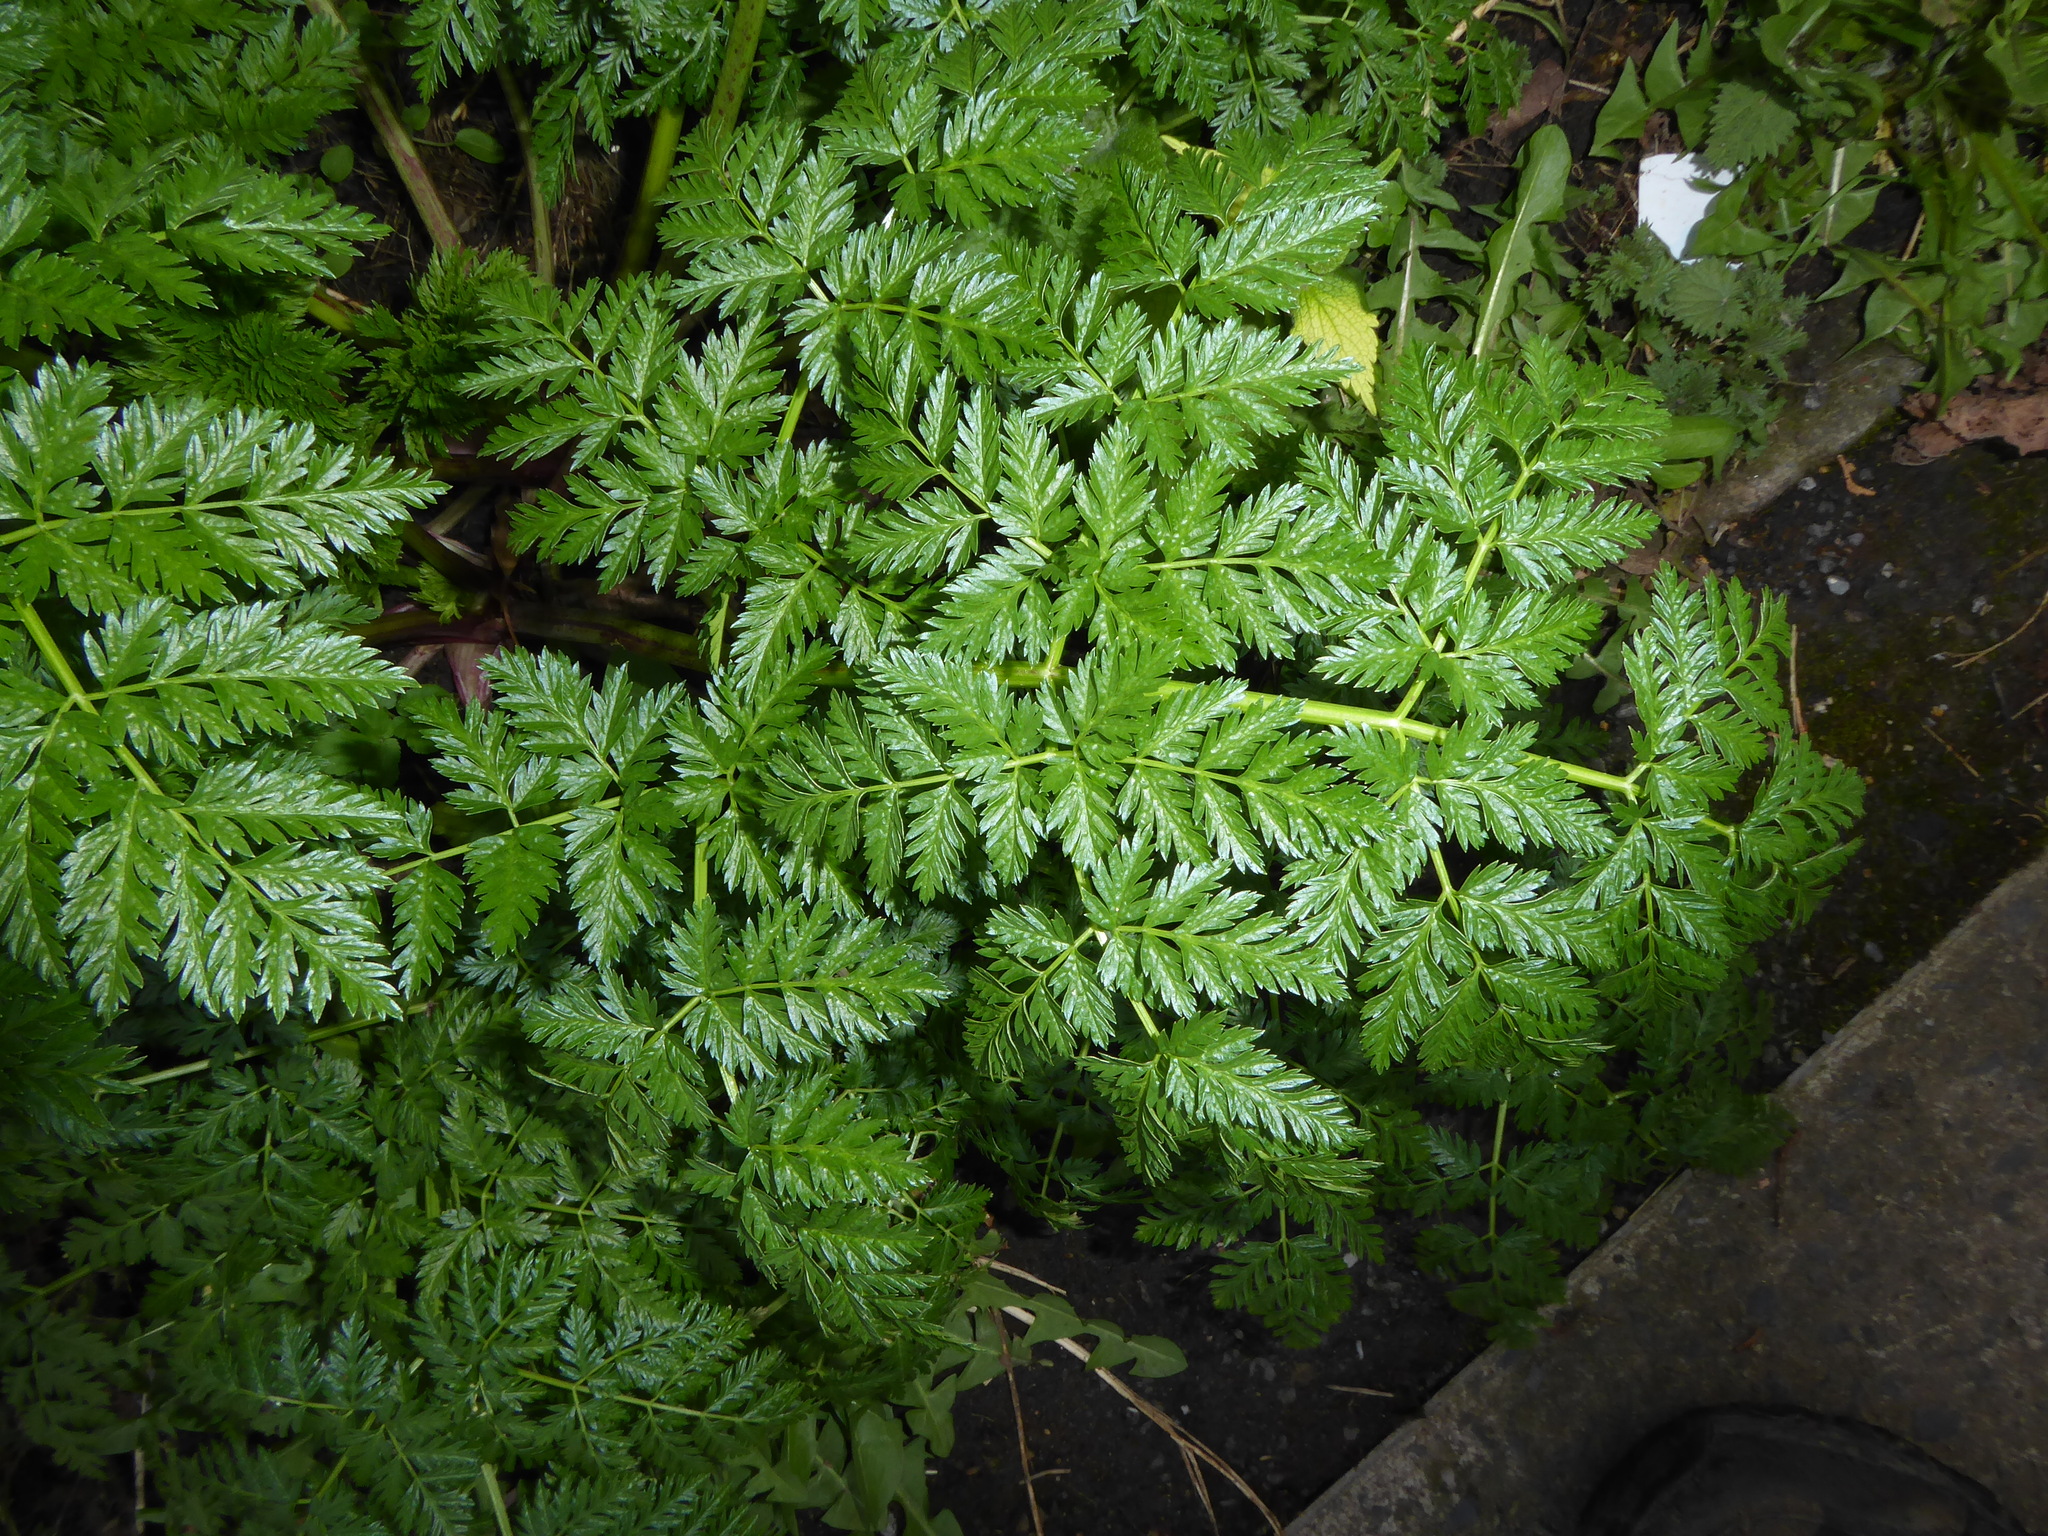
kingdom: Plantae
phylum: Tracheophyta
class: Magnoliopsida
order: Apiales
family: Apiaceae
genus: Conium
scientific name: Conium maculatum
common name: Hemlock
